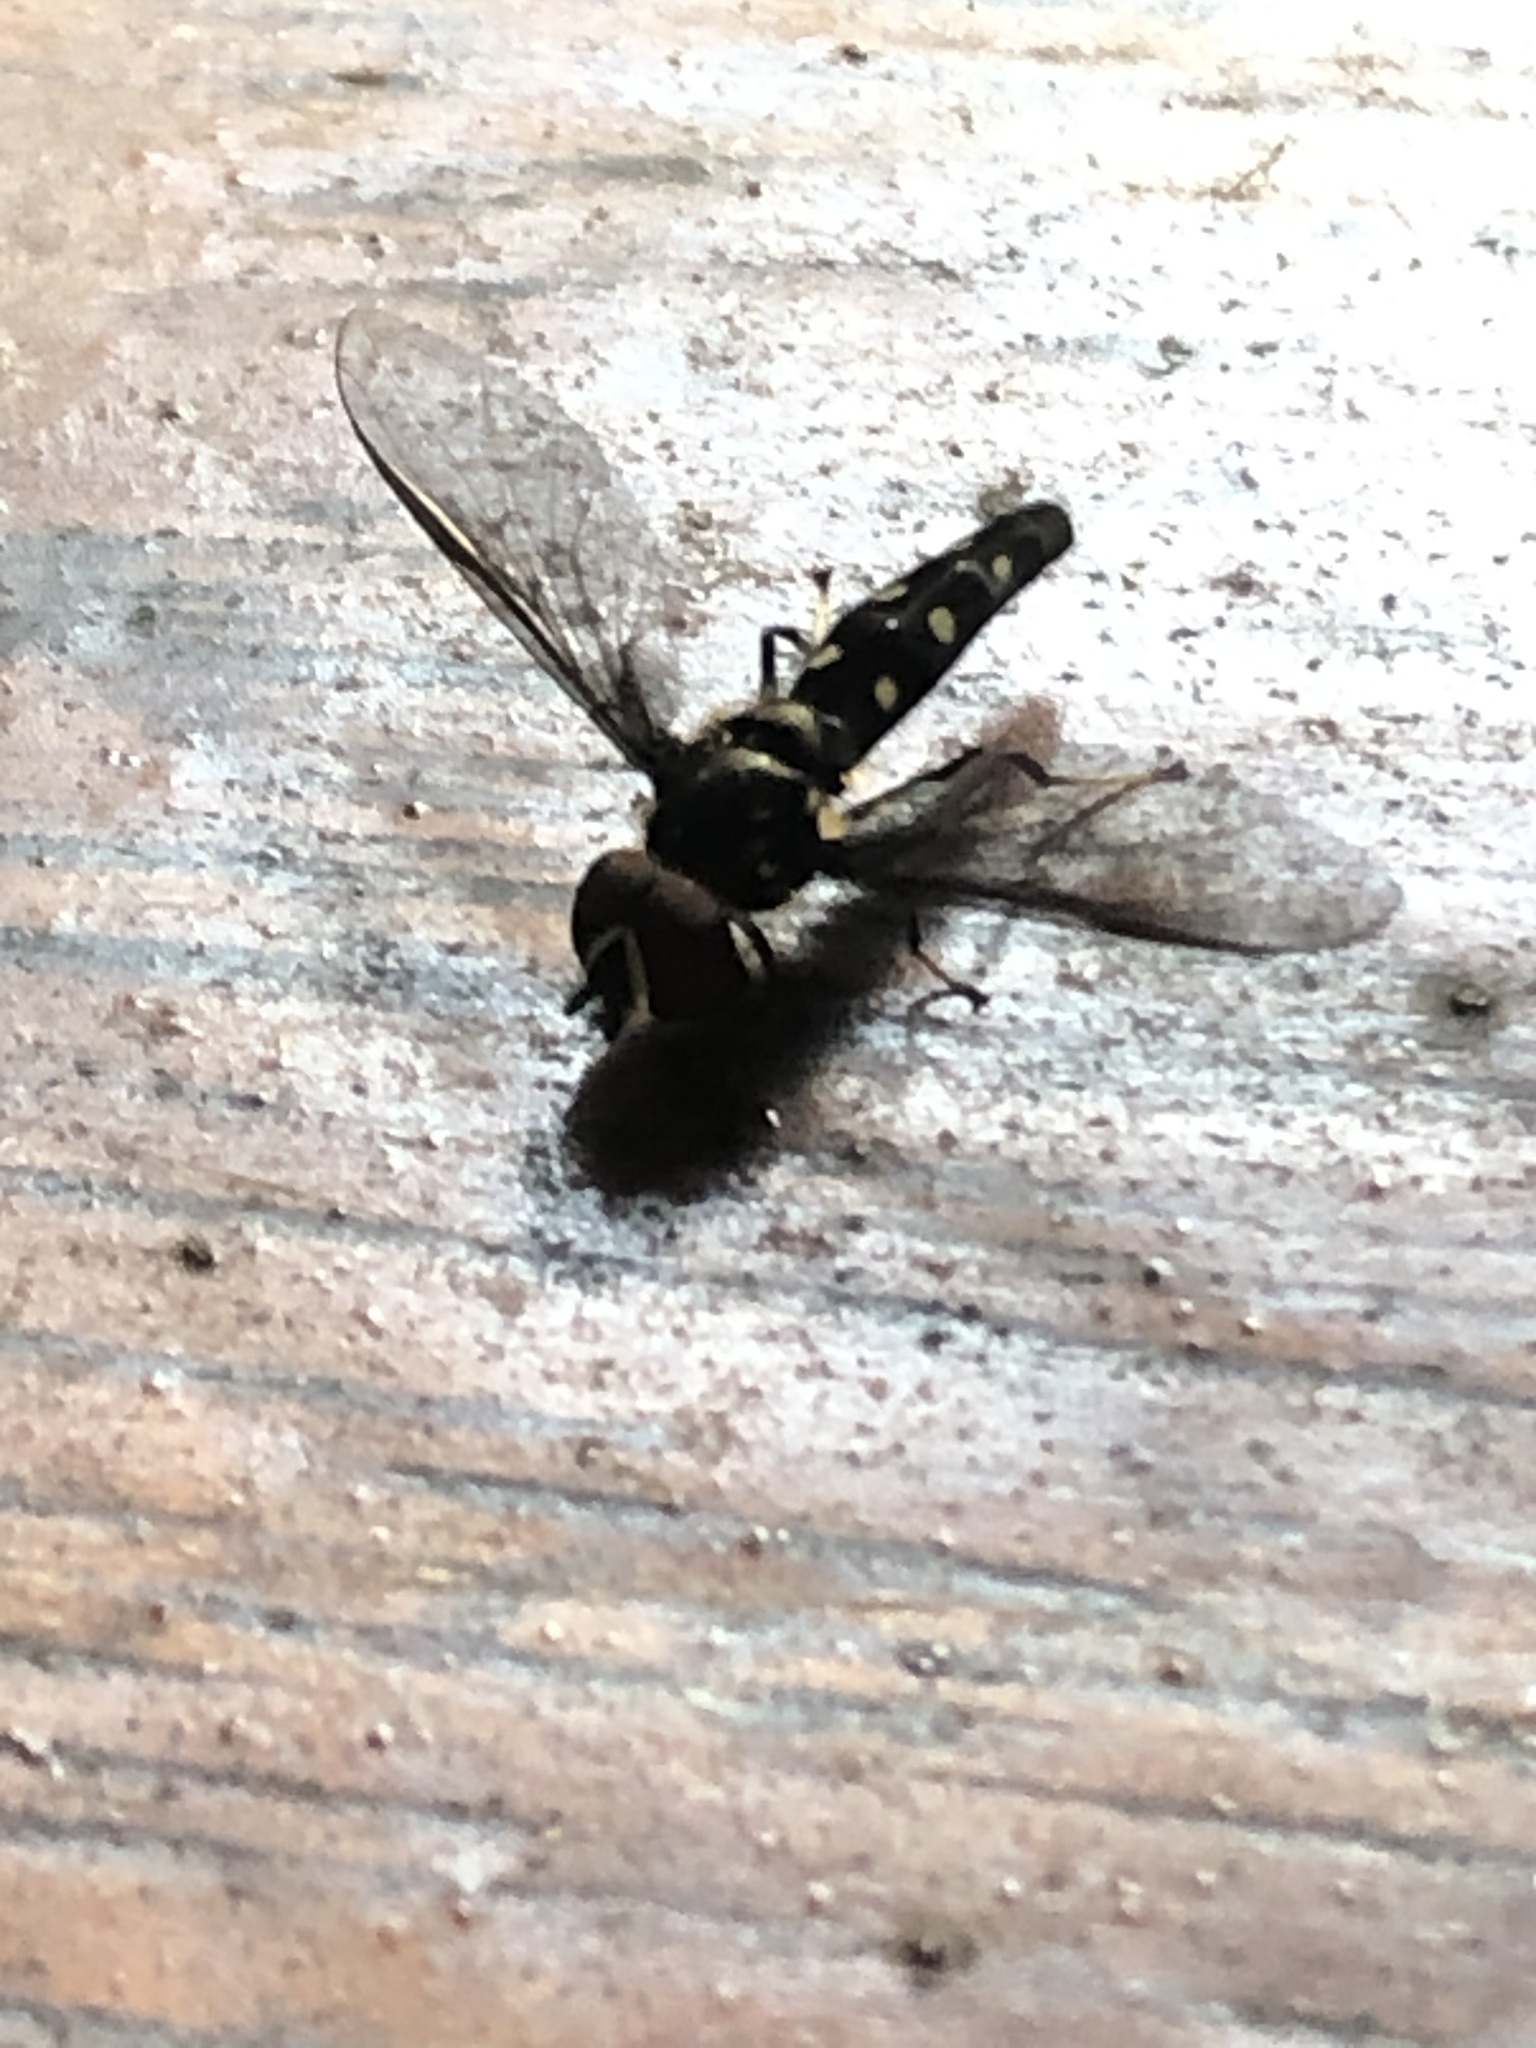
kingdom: Animalia
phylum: Arthropoda
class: Insecta
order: Diptera
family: Syrphidae
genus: Ocyptamus
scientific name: Ocyptamus gastrostactus
